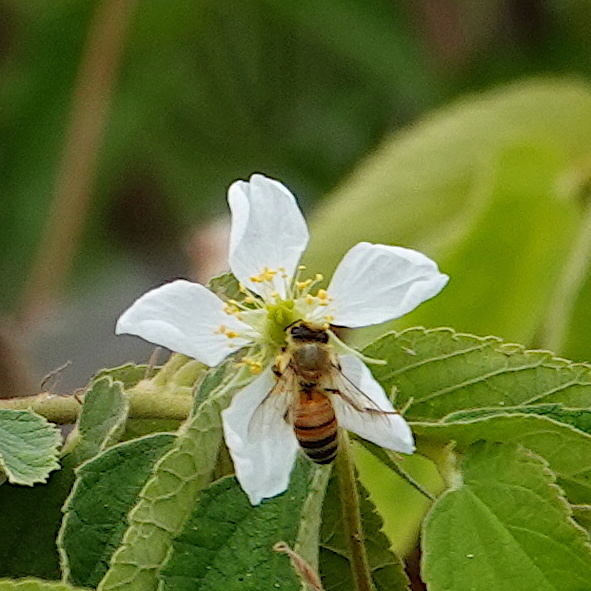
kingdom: Animalia
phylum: Arthropoda
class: Insecta
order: Hymenoptera
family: Apidae
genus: Apis
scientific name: Apis mellifera
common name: Honey bee
